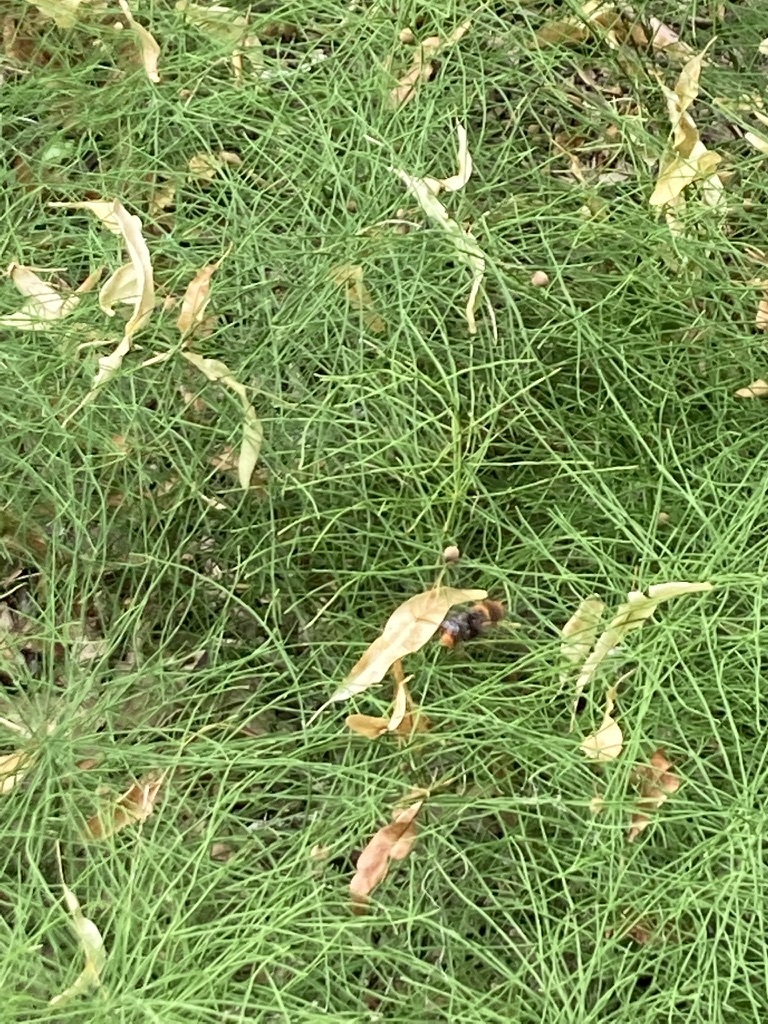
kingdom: Animalia
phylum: Arthropoda
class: Insecta
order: Hymenoptera
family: Vespidae
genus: Vespa
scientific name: Vespa velutina
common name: Asian hornet
